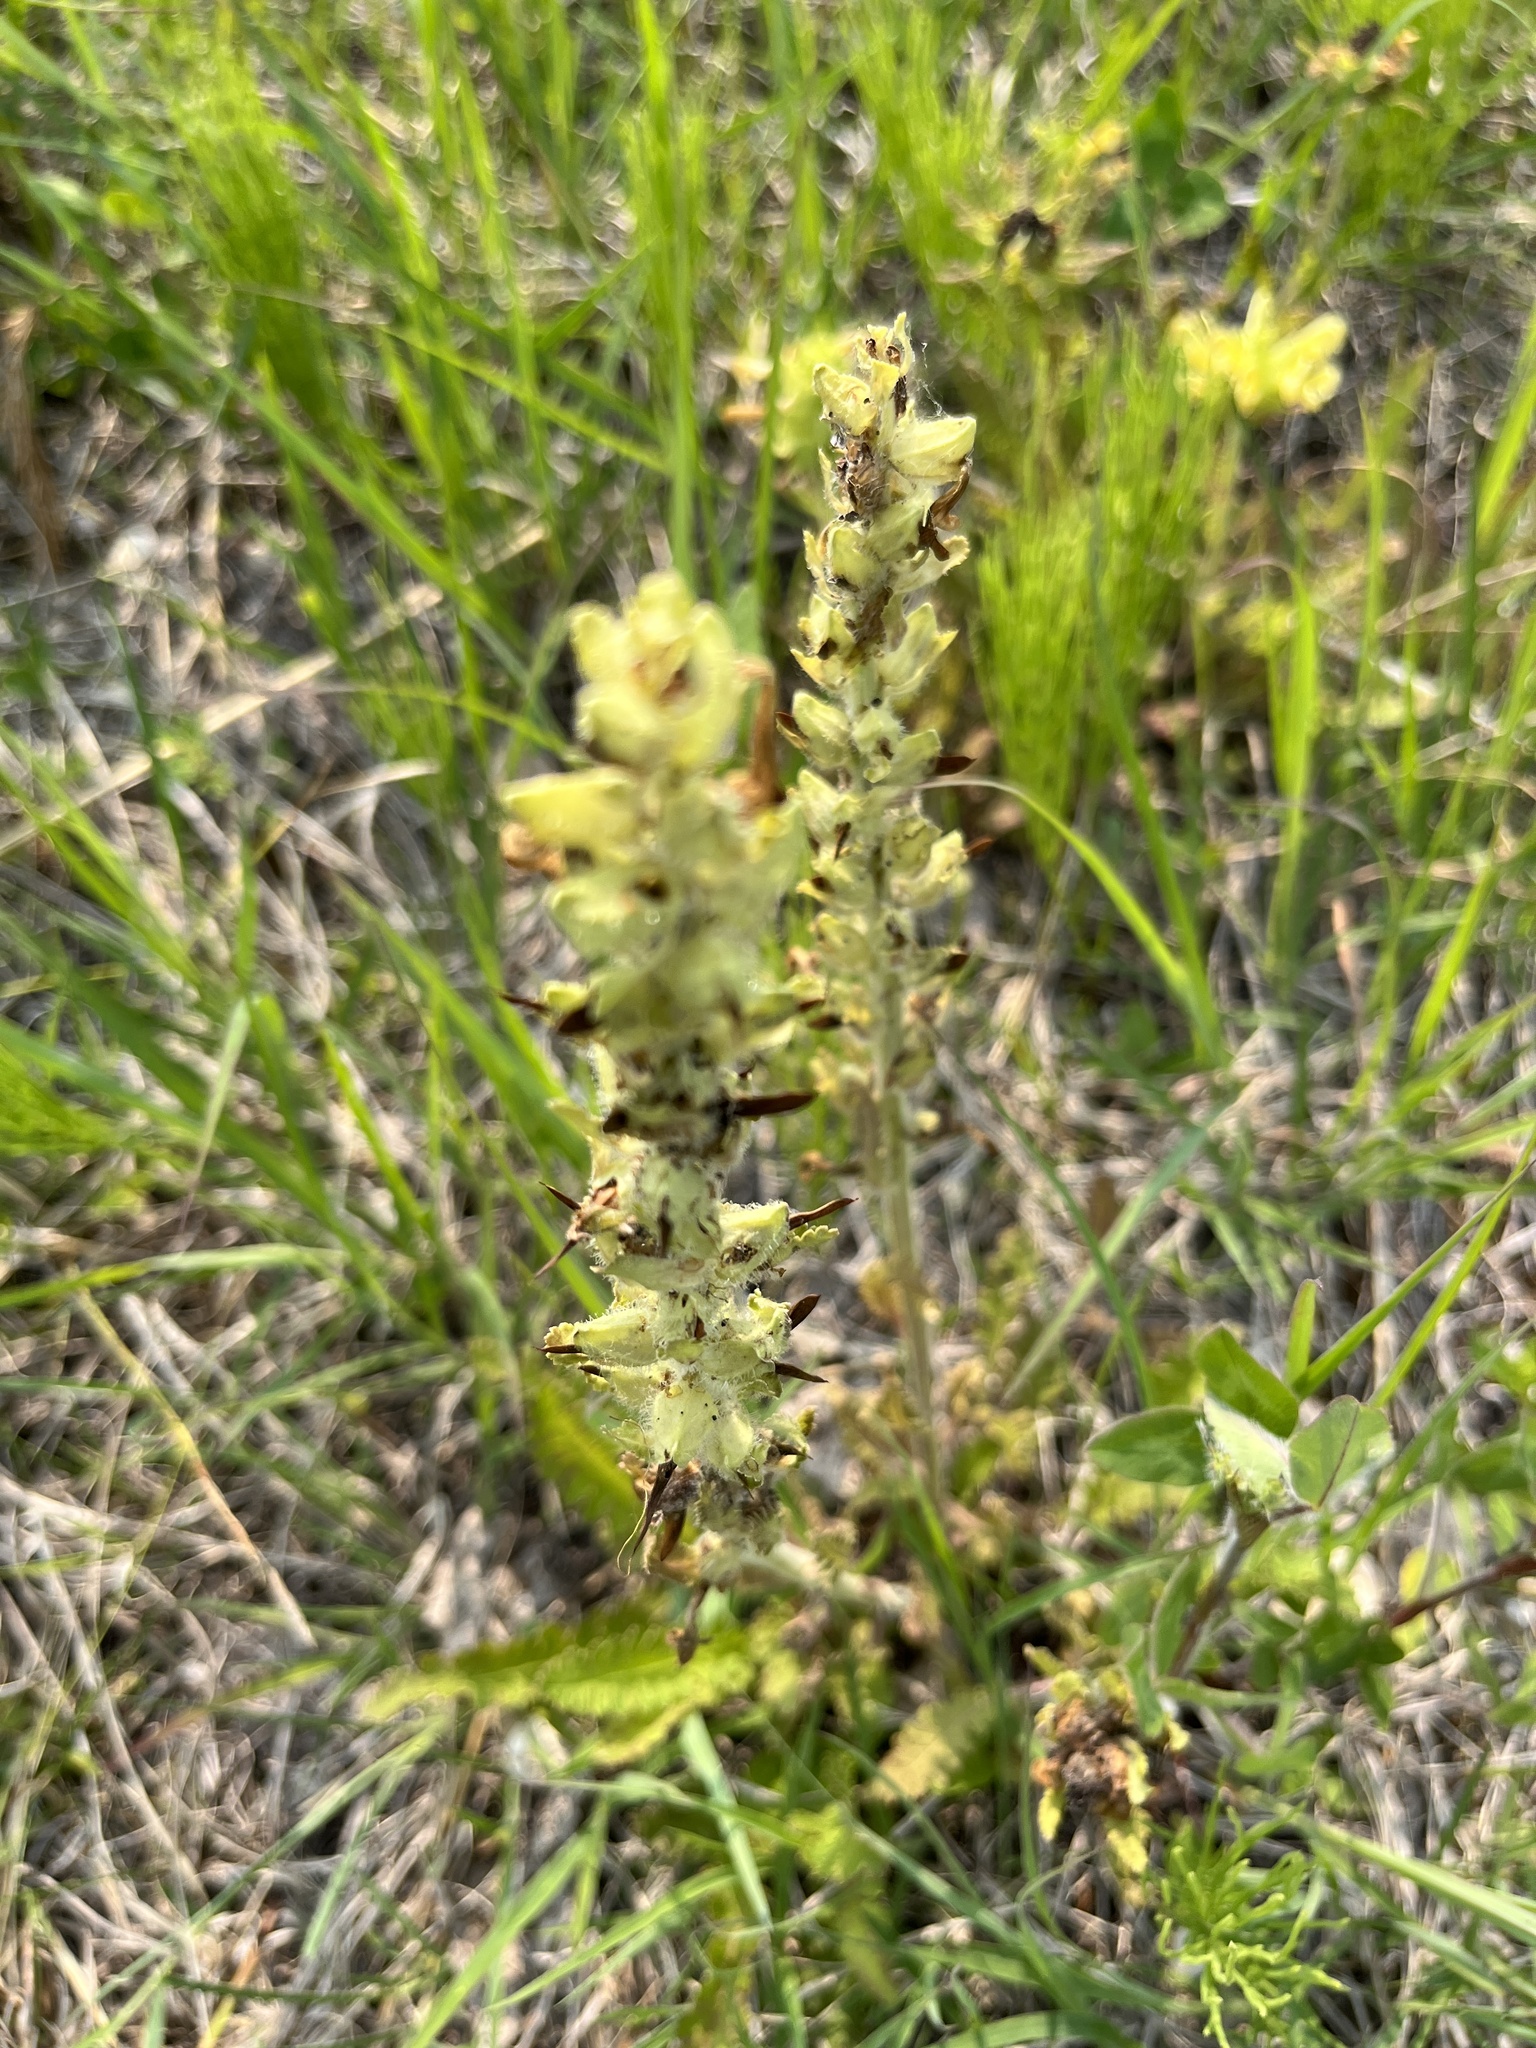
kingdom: Plantae
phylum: Tracheophyta
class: Magnoliopsida
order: Lamiales
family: Orobanchaceae
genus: Pedicularis
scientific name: Pedicularis canadensis
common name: Early lousewort
